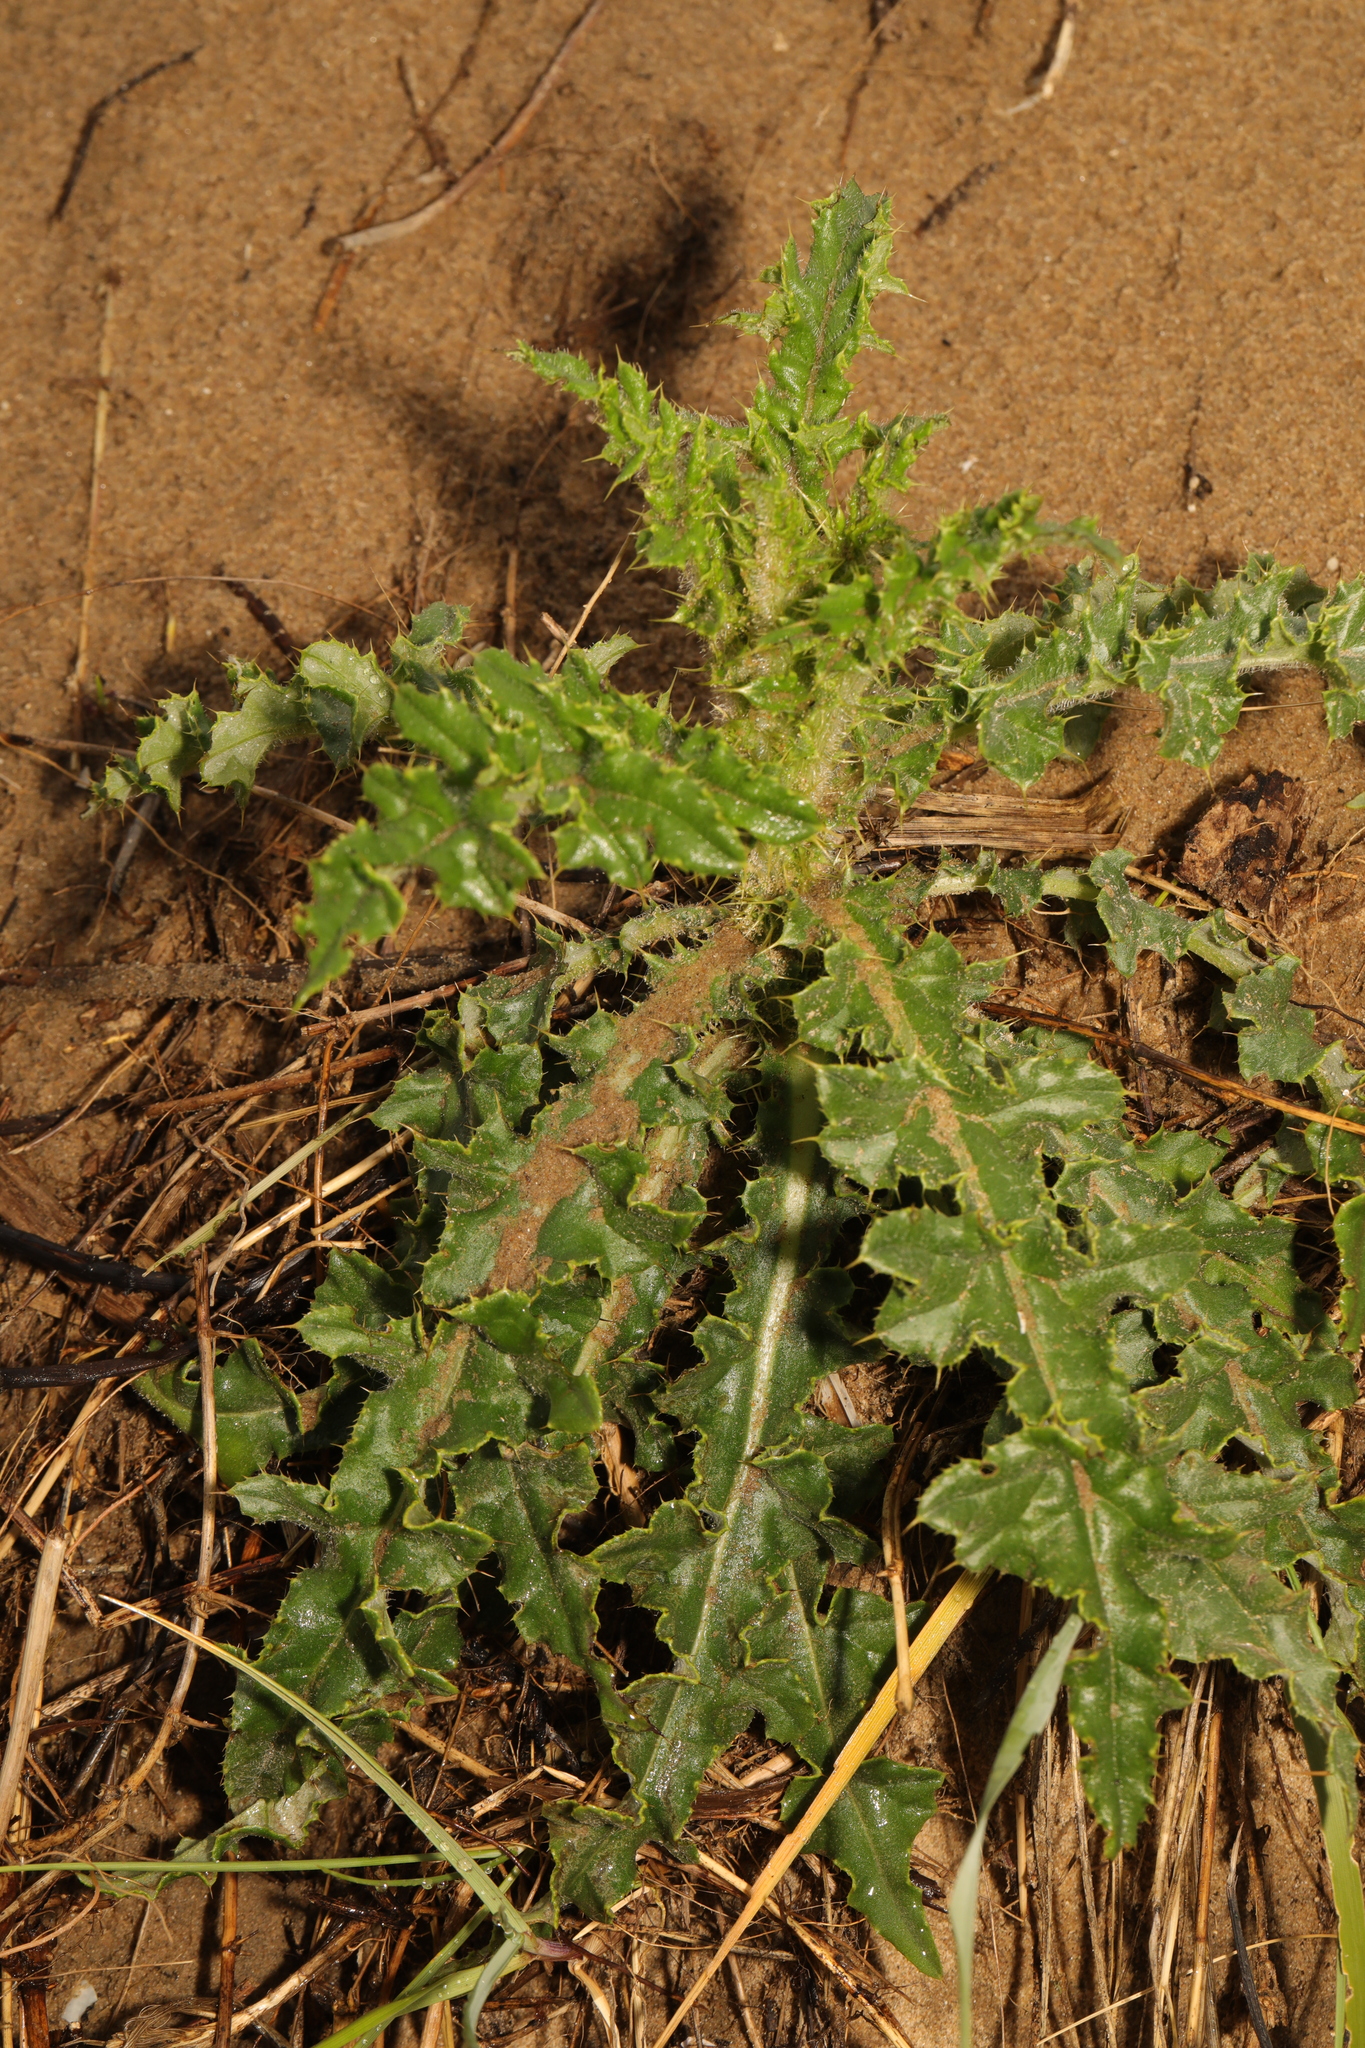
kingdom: Plantae
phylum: Tracheophyta
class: Magnoliopsida
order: Asterales
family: Asteraceae
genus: Cirsium
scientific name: Cirsium arvense
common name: Creeping thistle
